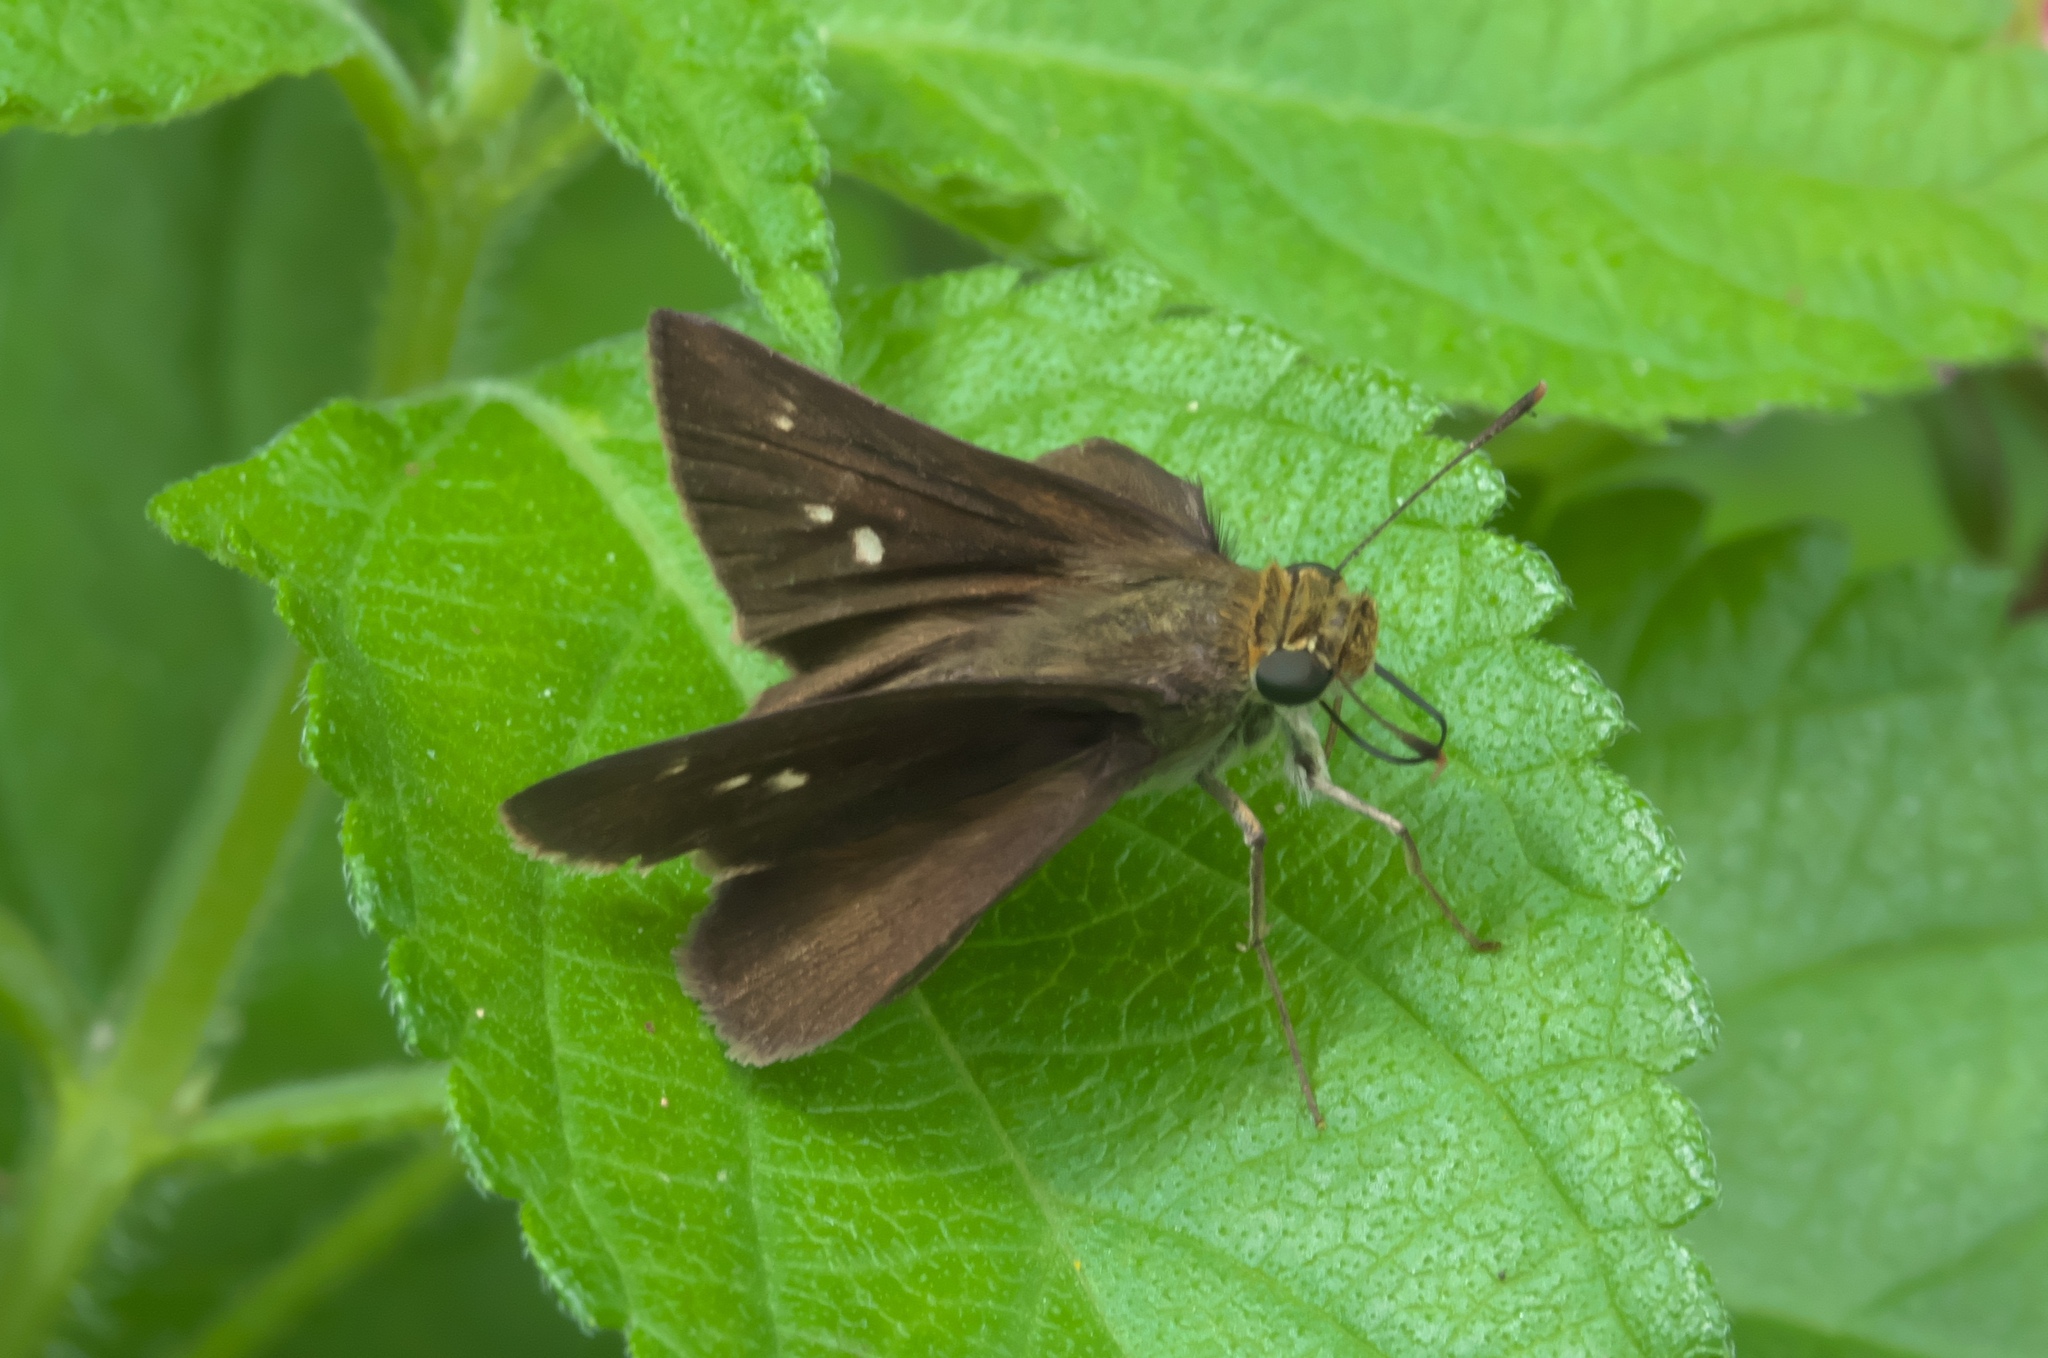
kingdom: Animalia
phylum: Arthropoda
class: Insecta
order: Lepidoptera
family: Hesperiidae
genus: Euphyes
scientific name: Euphyes vestris
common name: Dun skipper
